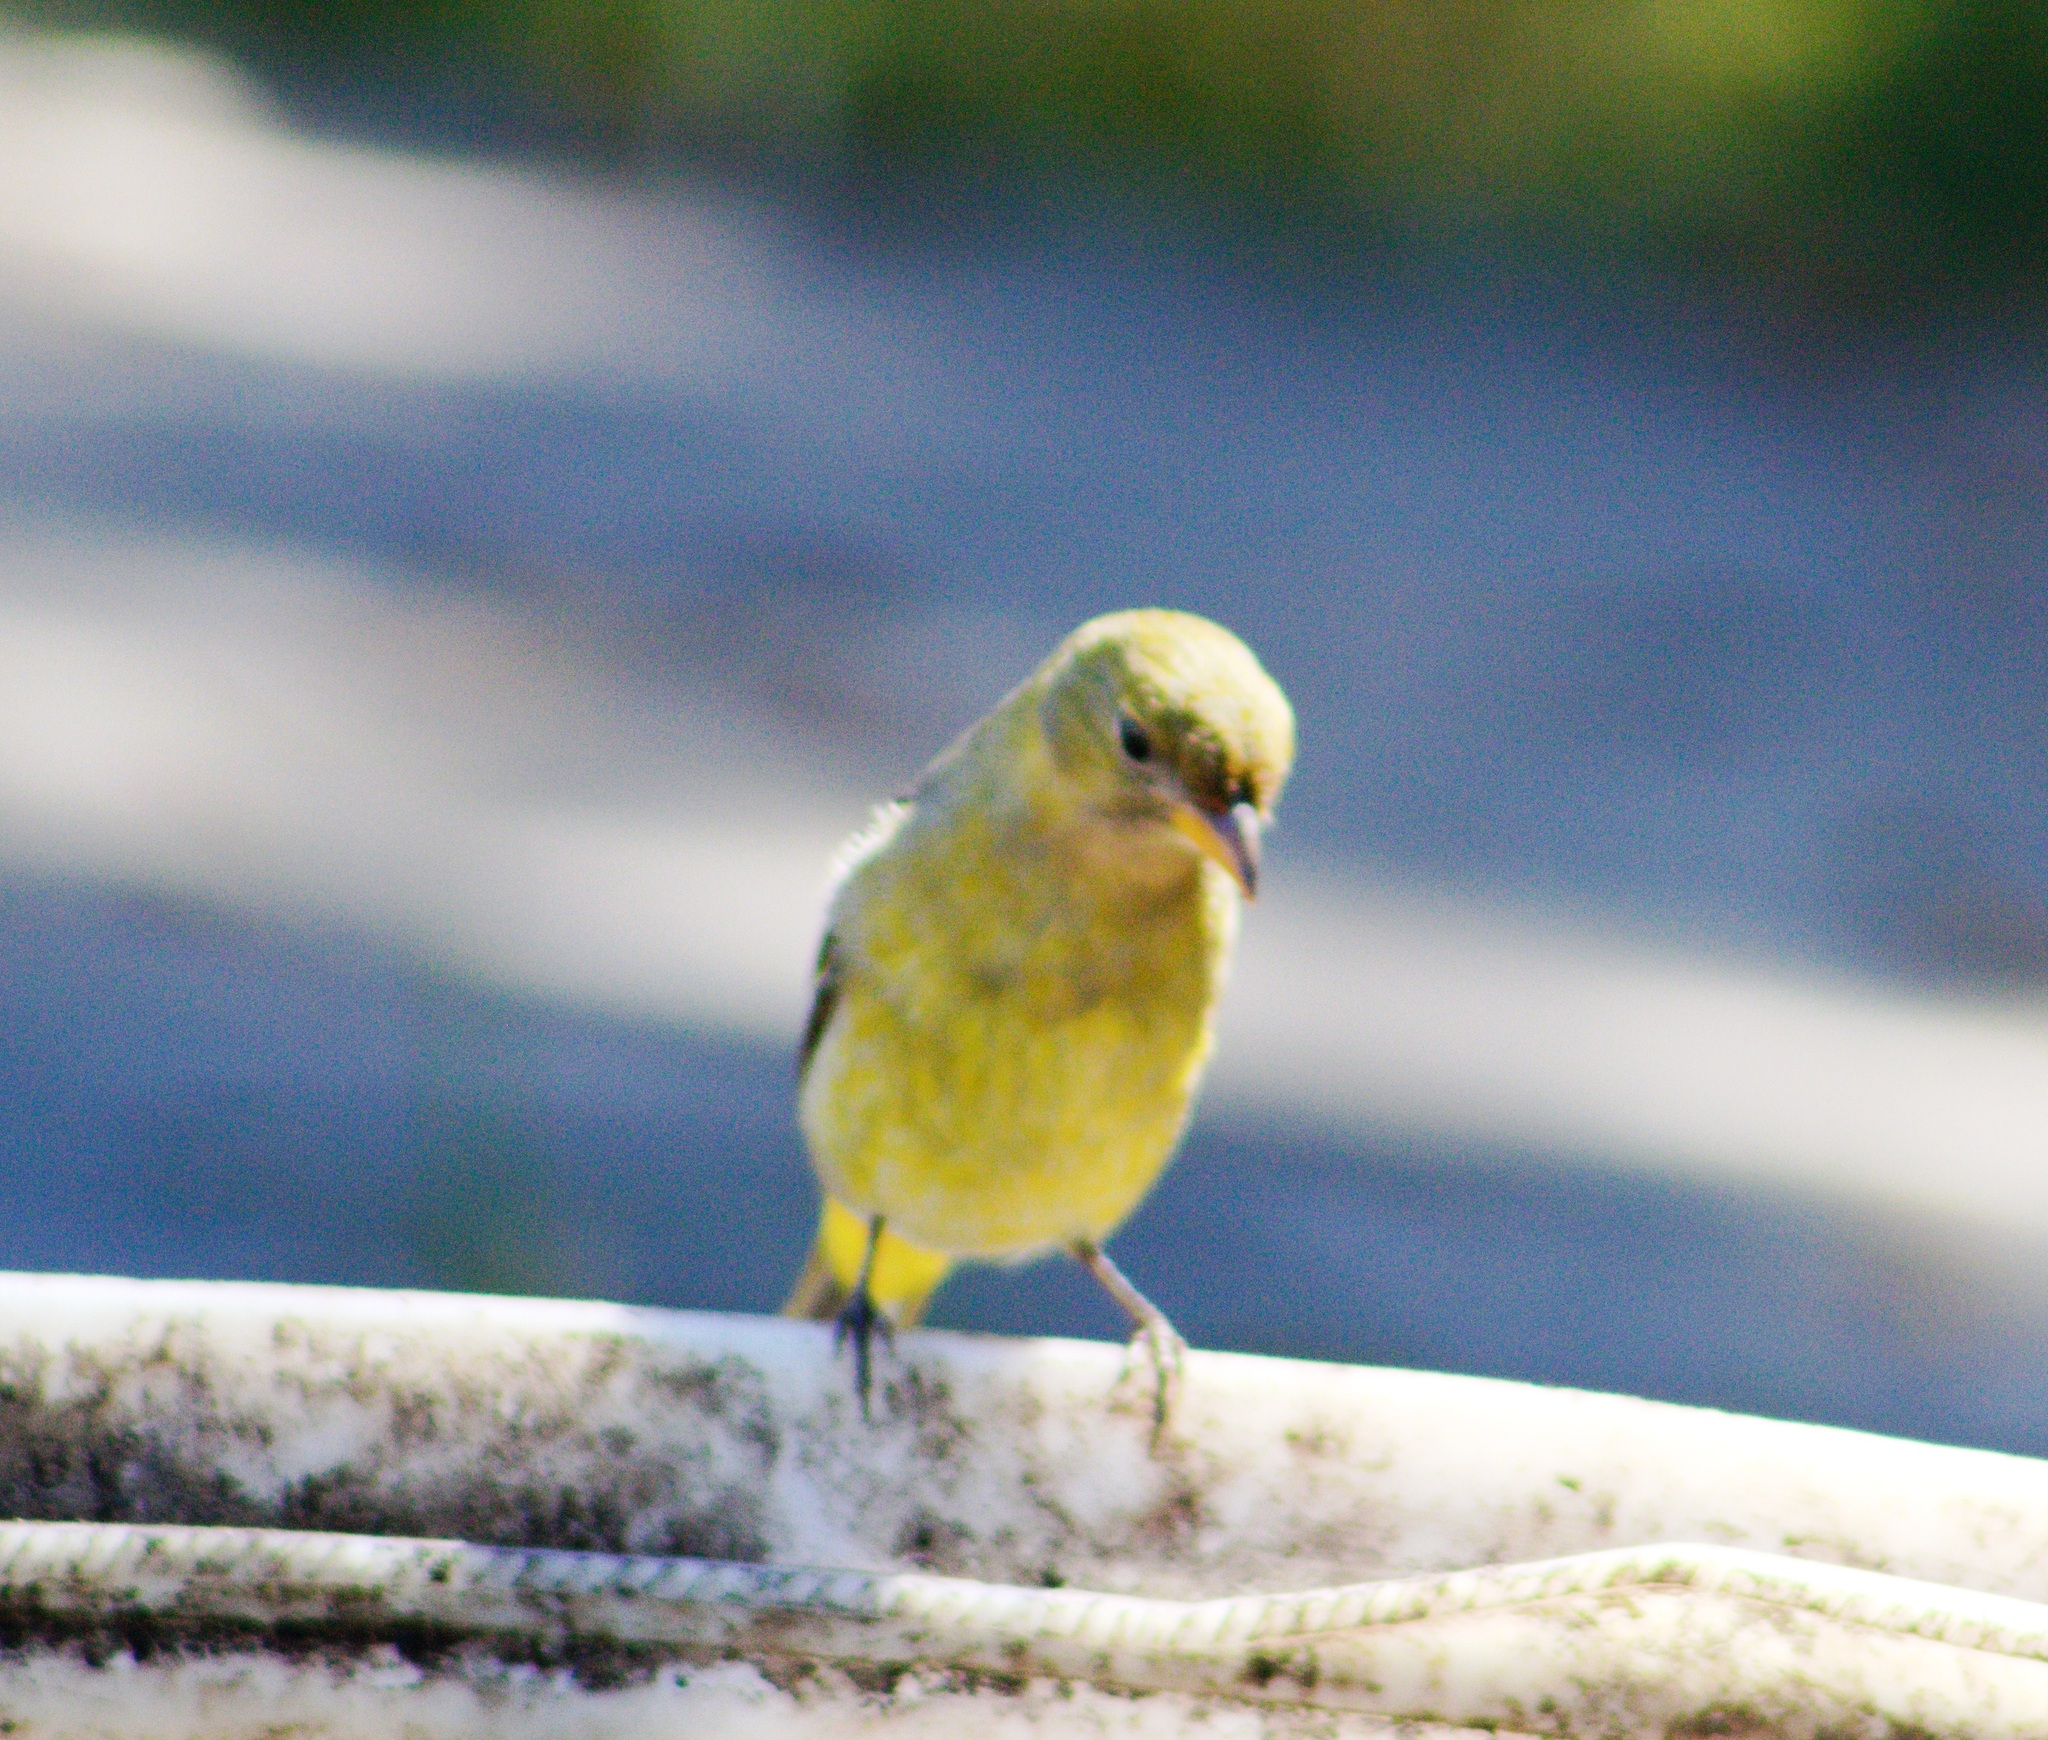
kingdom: Animalia
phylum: Chordata
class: Aves
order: Passeriformes
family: Cardinalidae
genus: Piranga
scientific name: Piranga ludoviciana
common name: Western tanager
